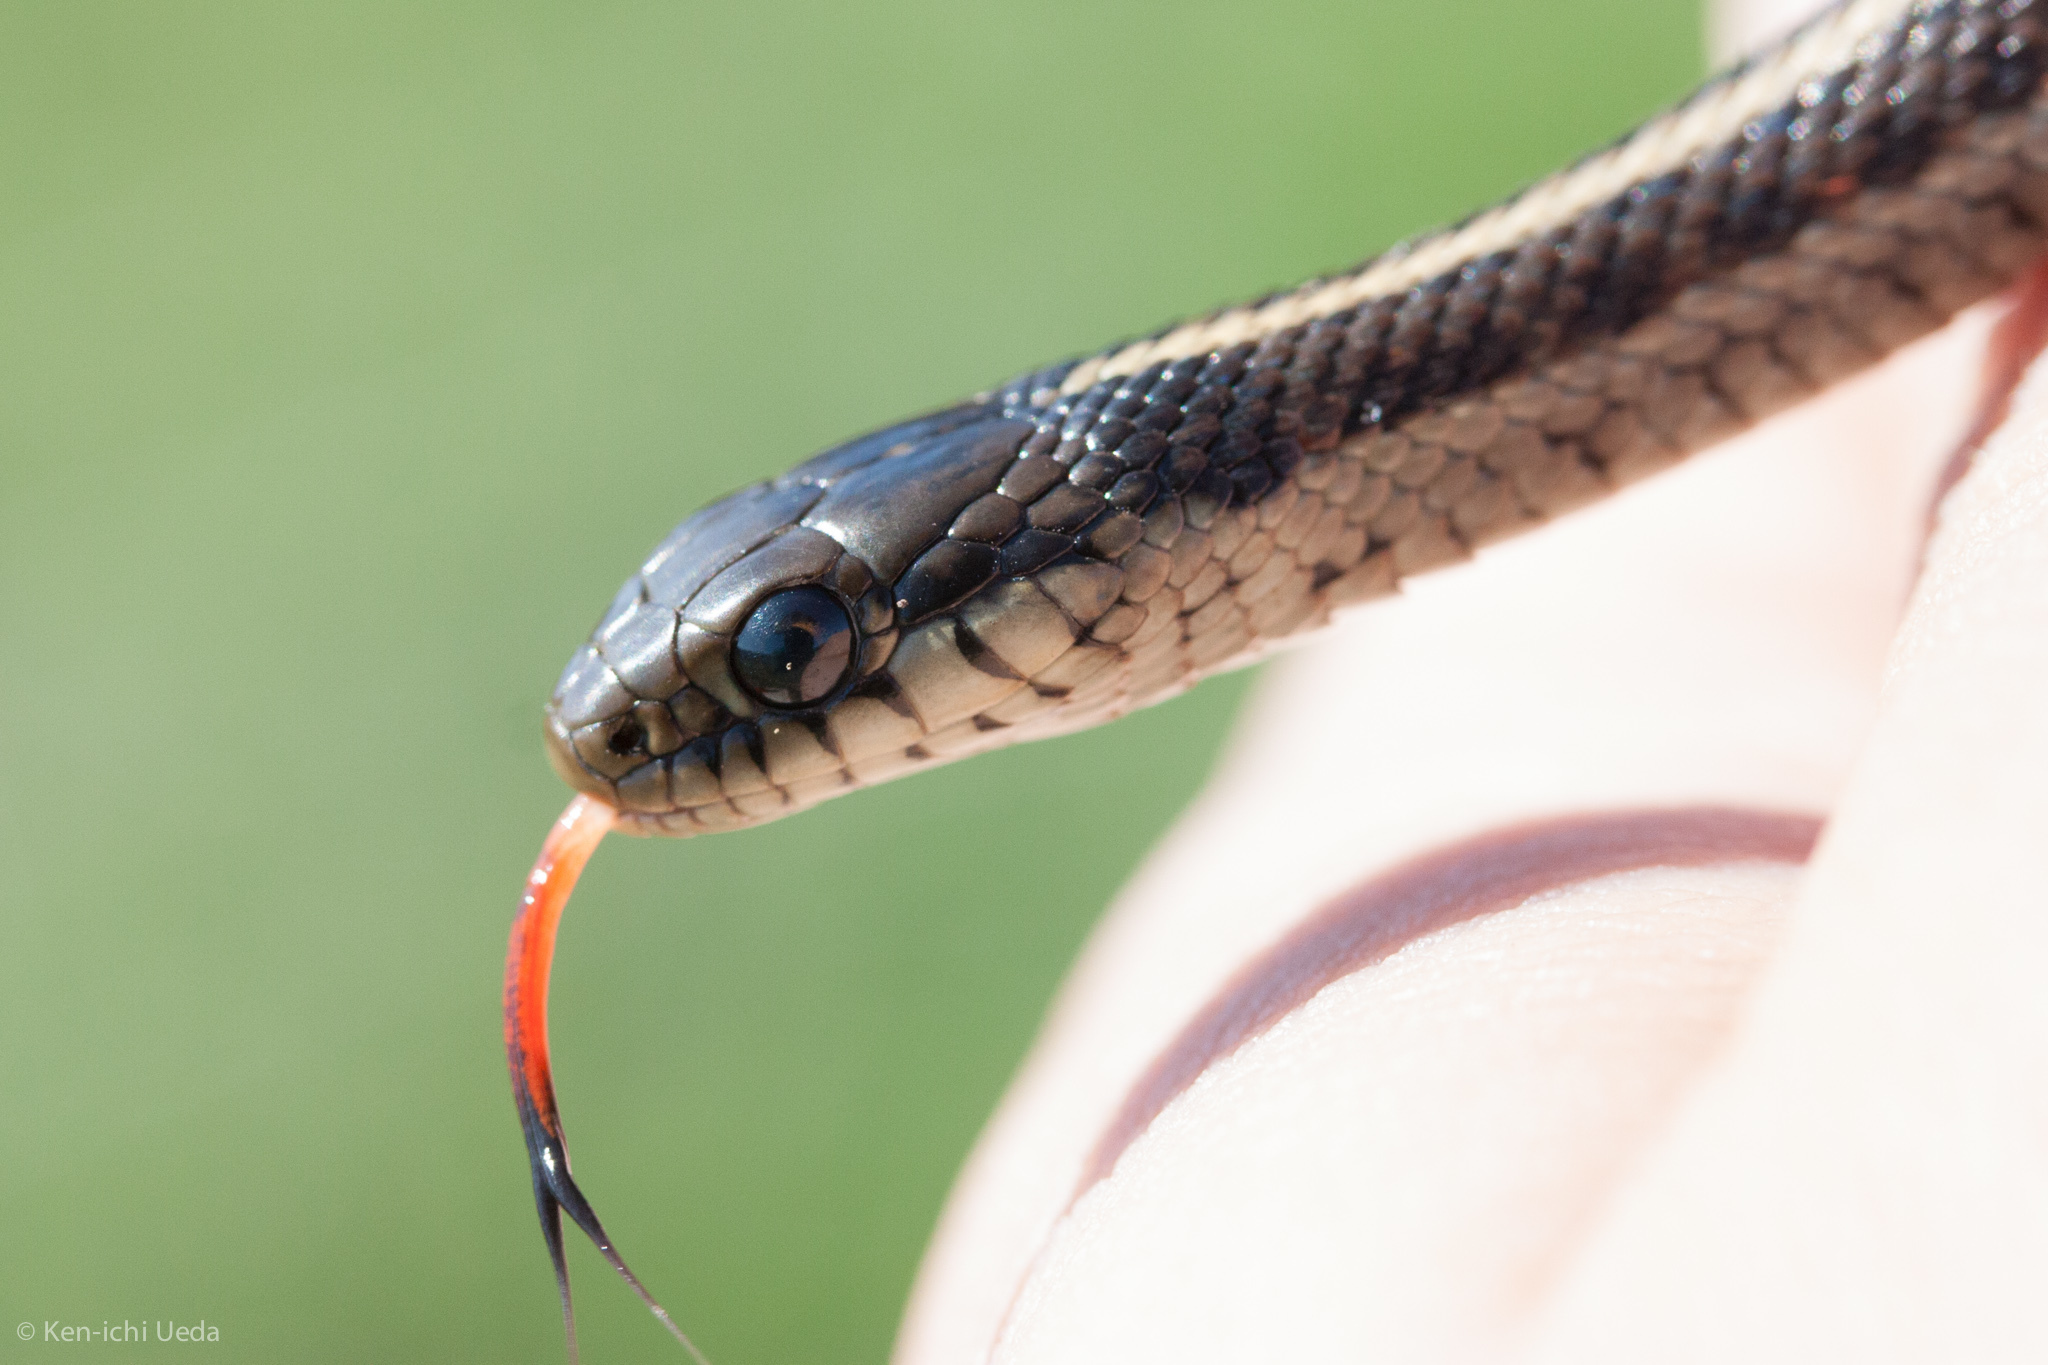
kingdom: Animalia
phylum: Chordata
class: Squamata
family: Colubridae
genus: Thamnophis
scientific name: Thamnophis elegans
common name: Western terrestrial garter snake
